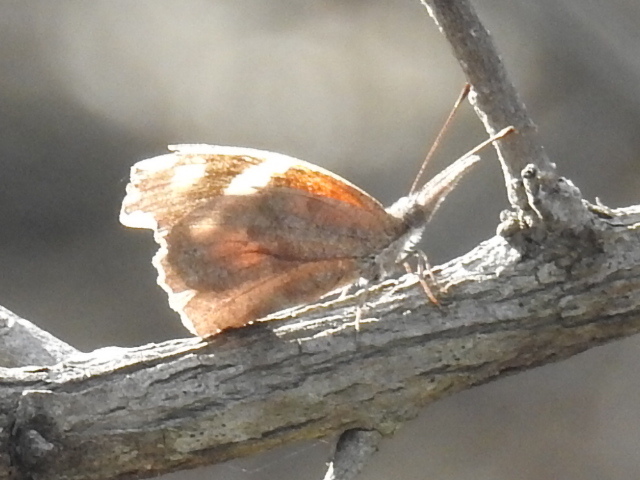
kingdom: Animalia
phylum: Arthropoda
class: Insecta
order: Lepidoptera
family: Nymphalidae
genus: Libytheana
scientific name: Libytheana carinenta
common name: American snout
